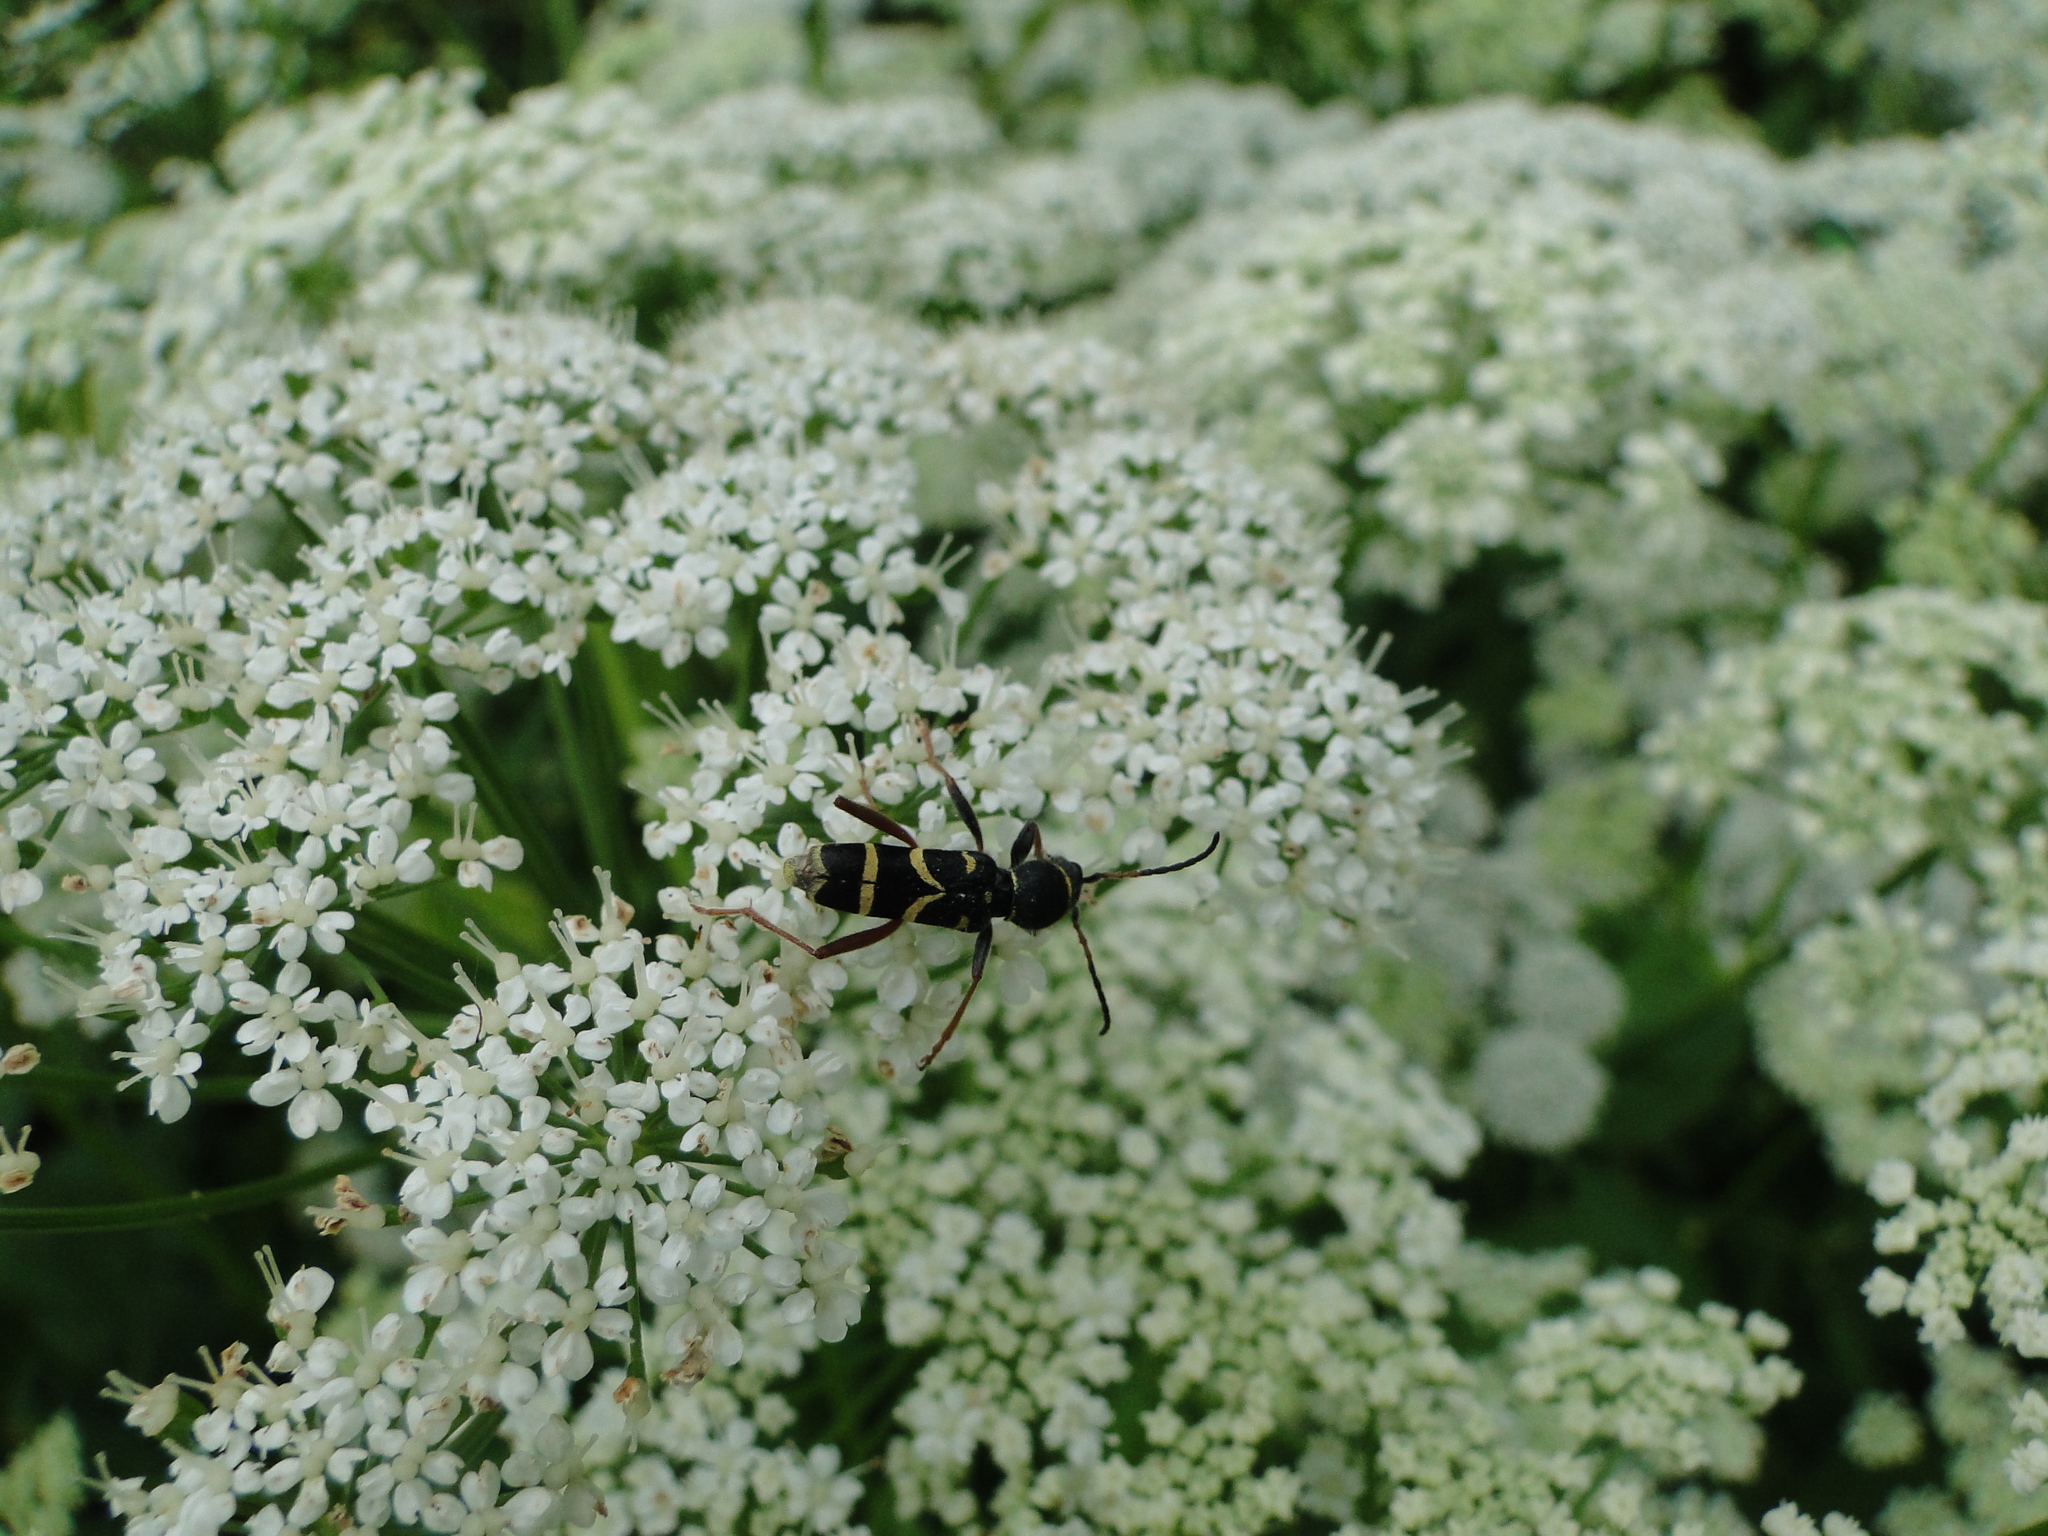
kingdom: Animalia
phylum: Arthropoda
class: Insecta
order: Coleoptera
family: Cerambycidae
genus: Clytus
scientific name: Clytus arietis
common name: Wasp beetle
